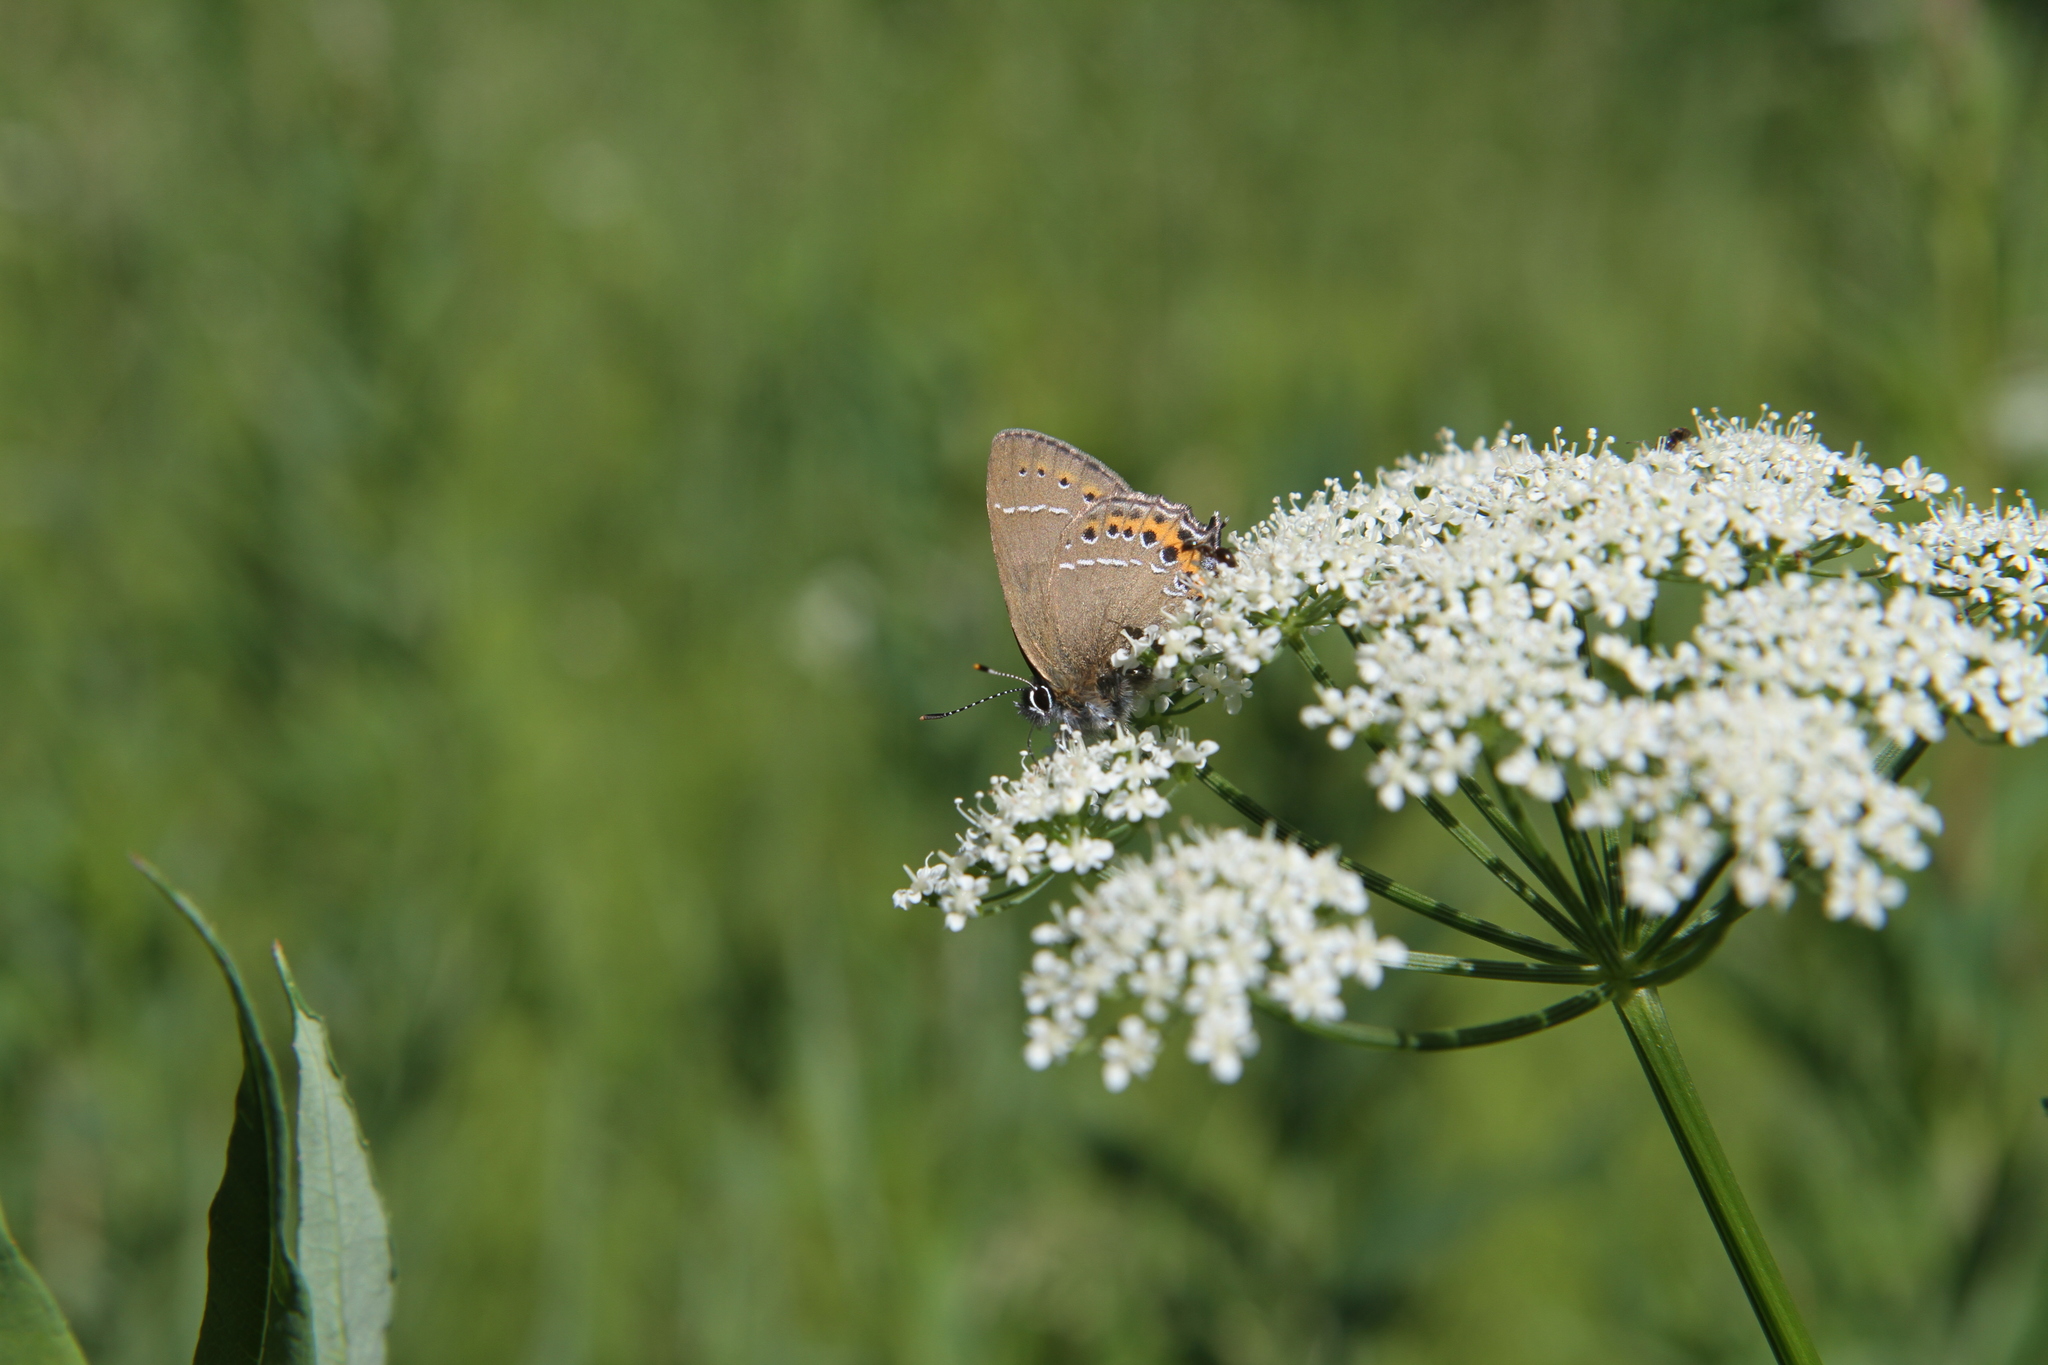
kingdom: Animalia
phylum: Arthropoda
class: Insecta
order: Lepidoptera
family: Lycaenidae
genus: Fixsenia
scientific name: Fixsenia pruni
